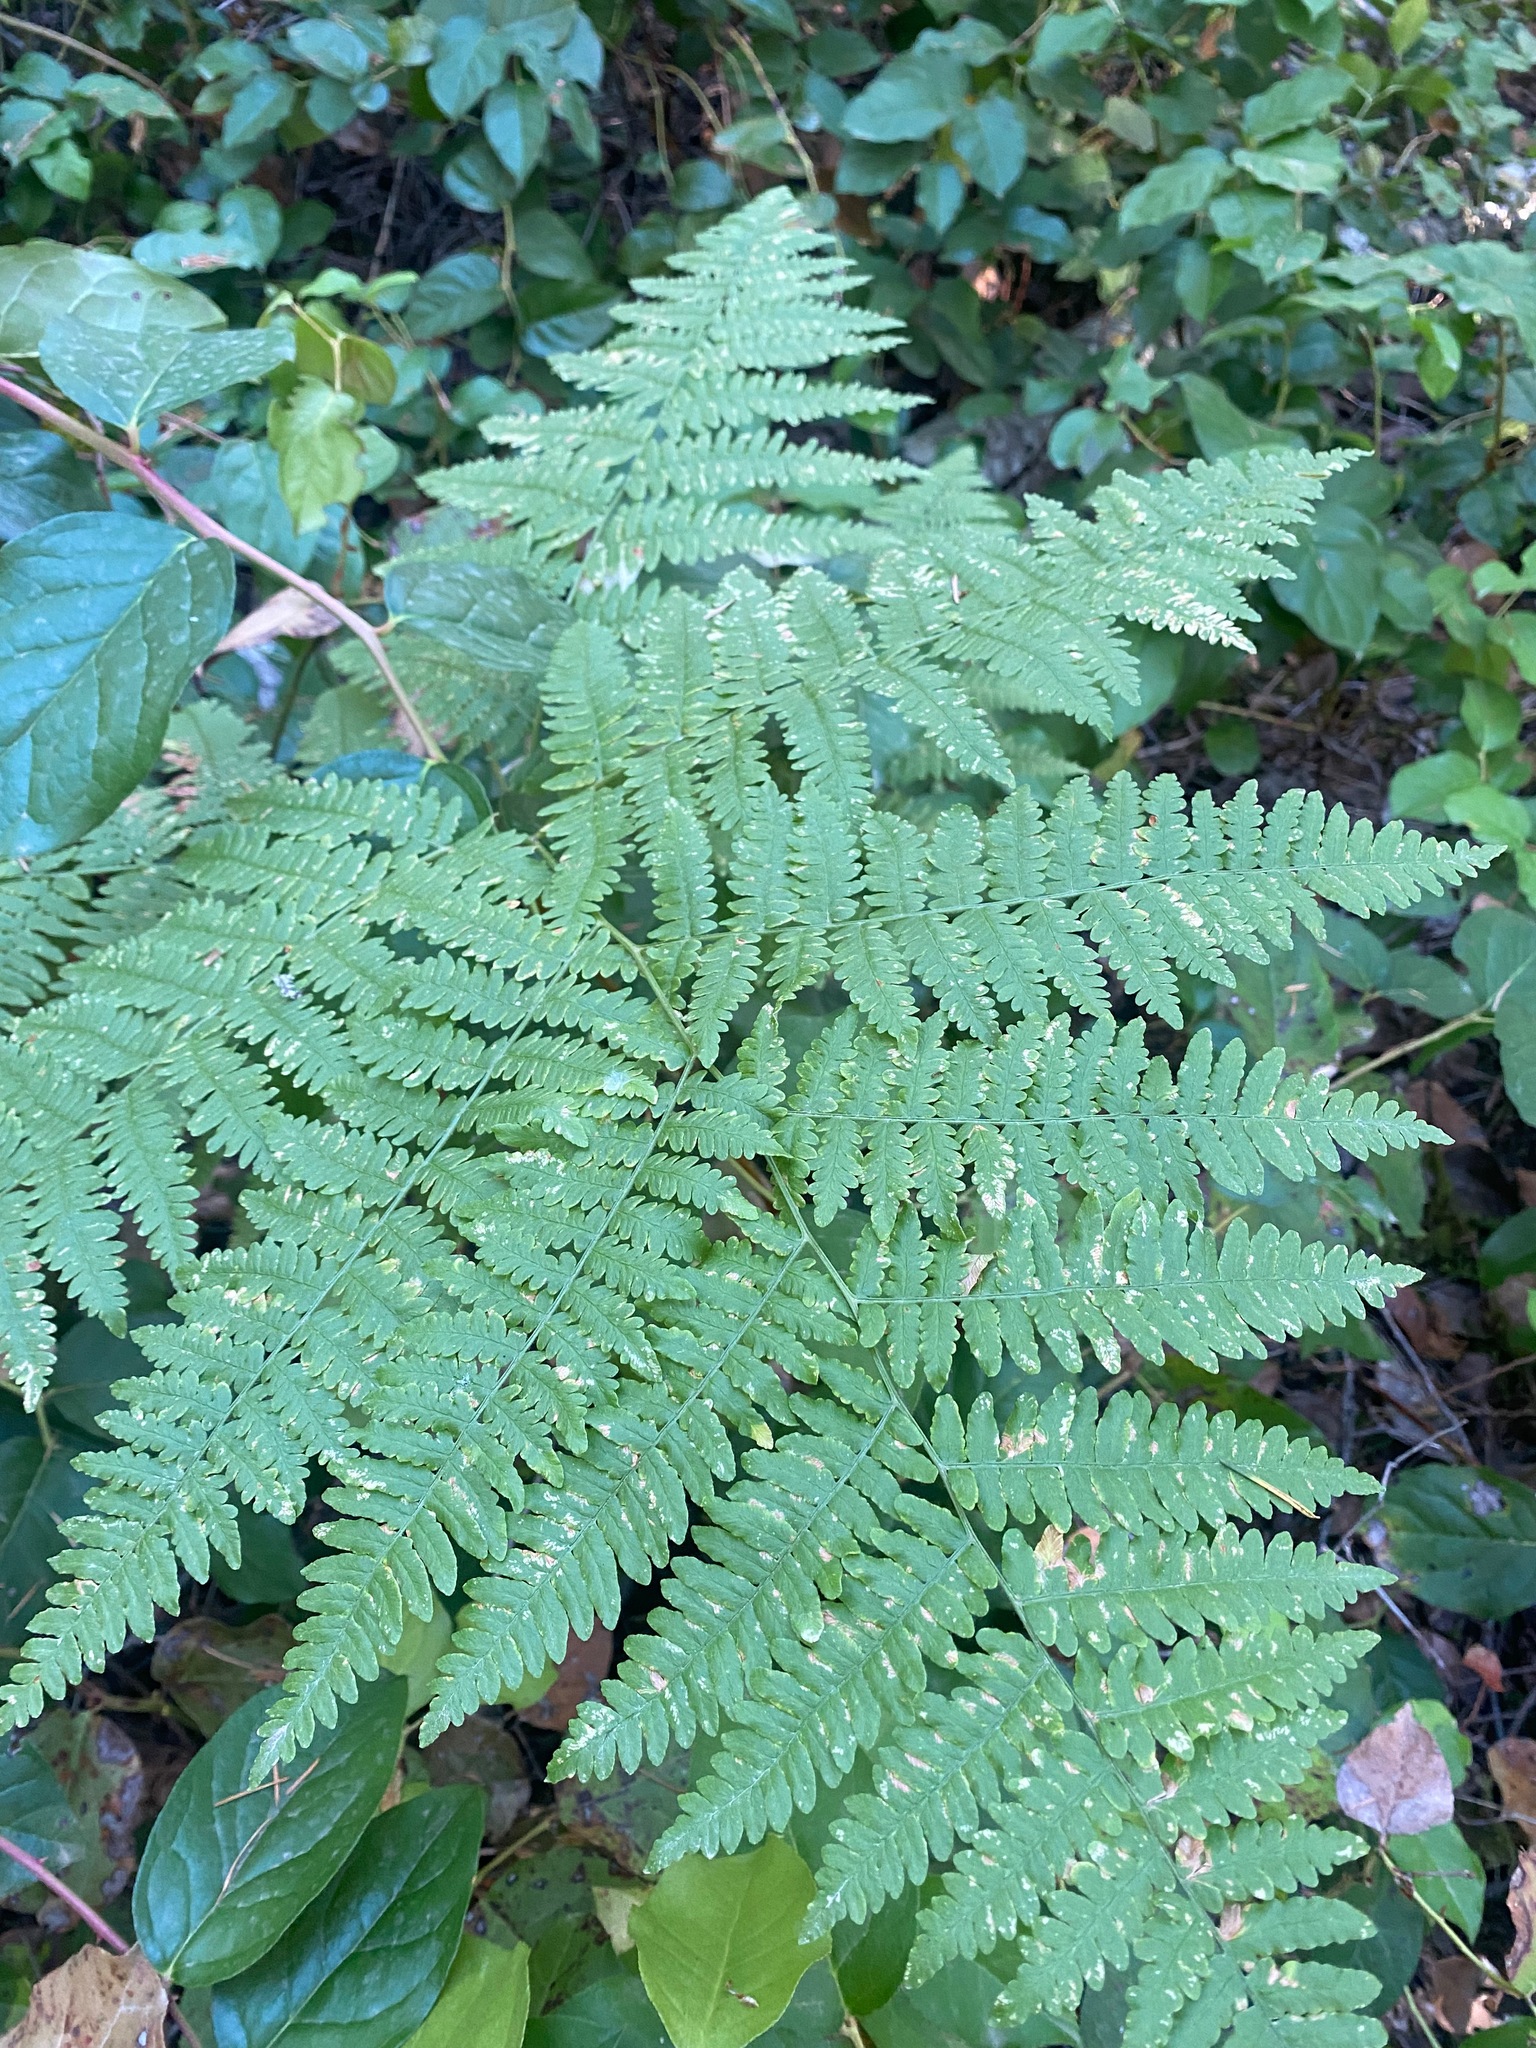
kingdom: Plantae
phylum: Tracheophyta
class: Polypodiopsida
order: Polypodiales
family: Dennstaedtiaceae
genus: Pteridium
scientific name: Pteridium aquilinum
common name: Bracken
